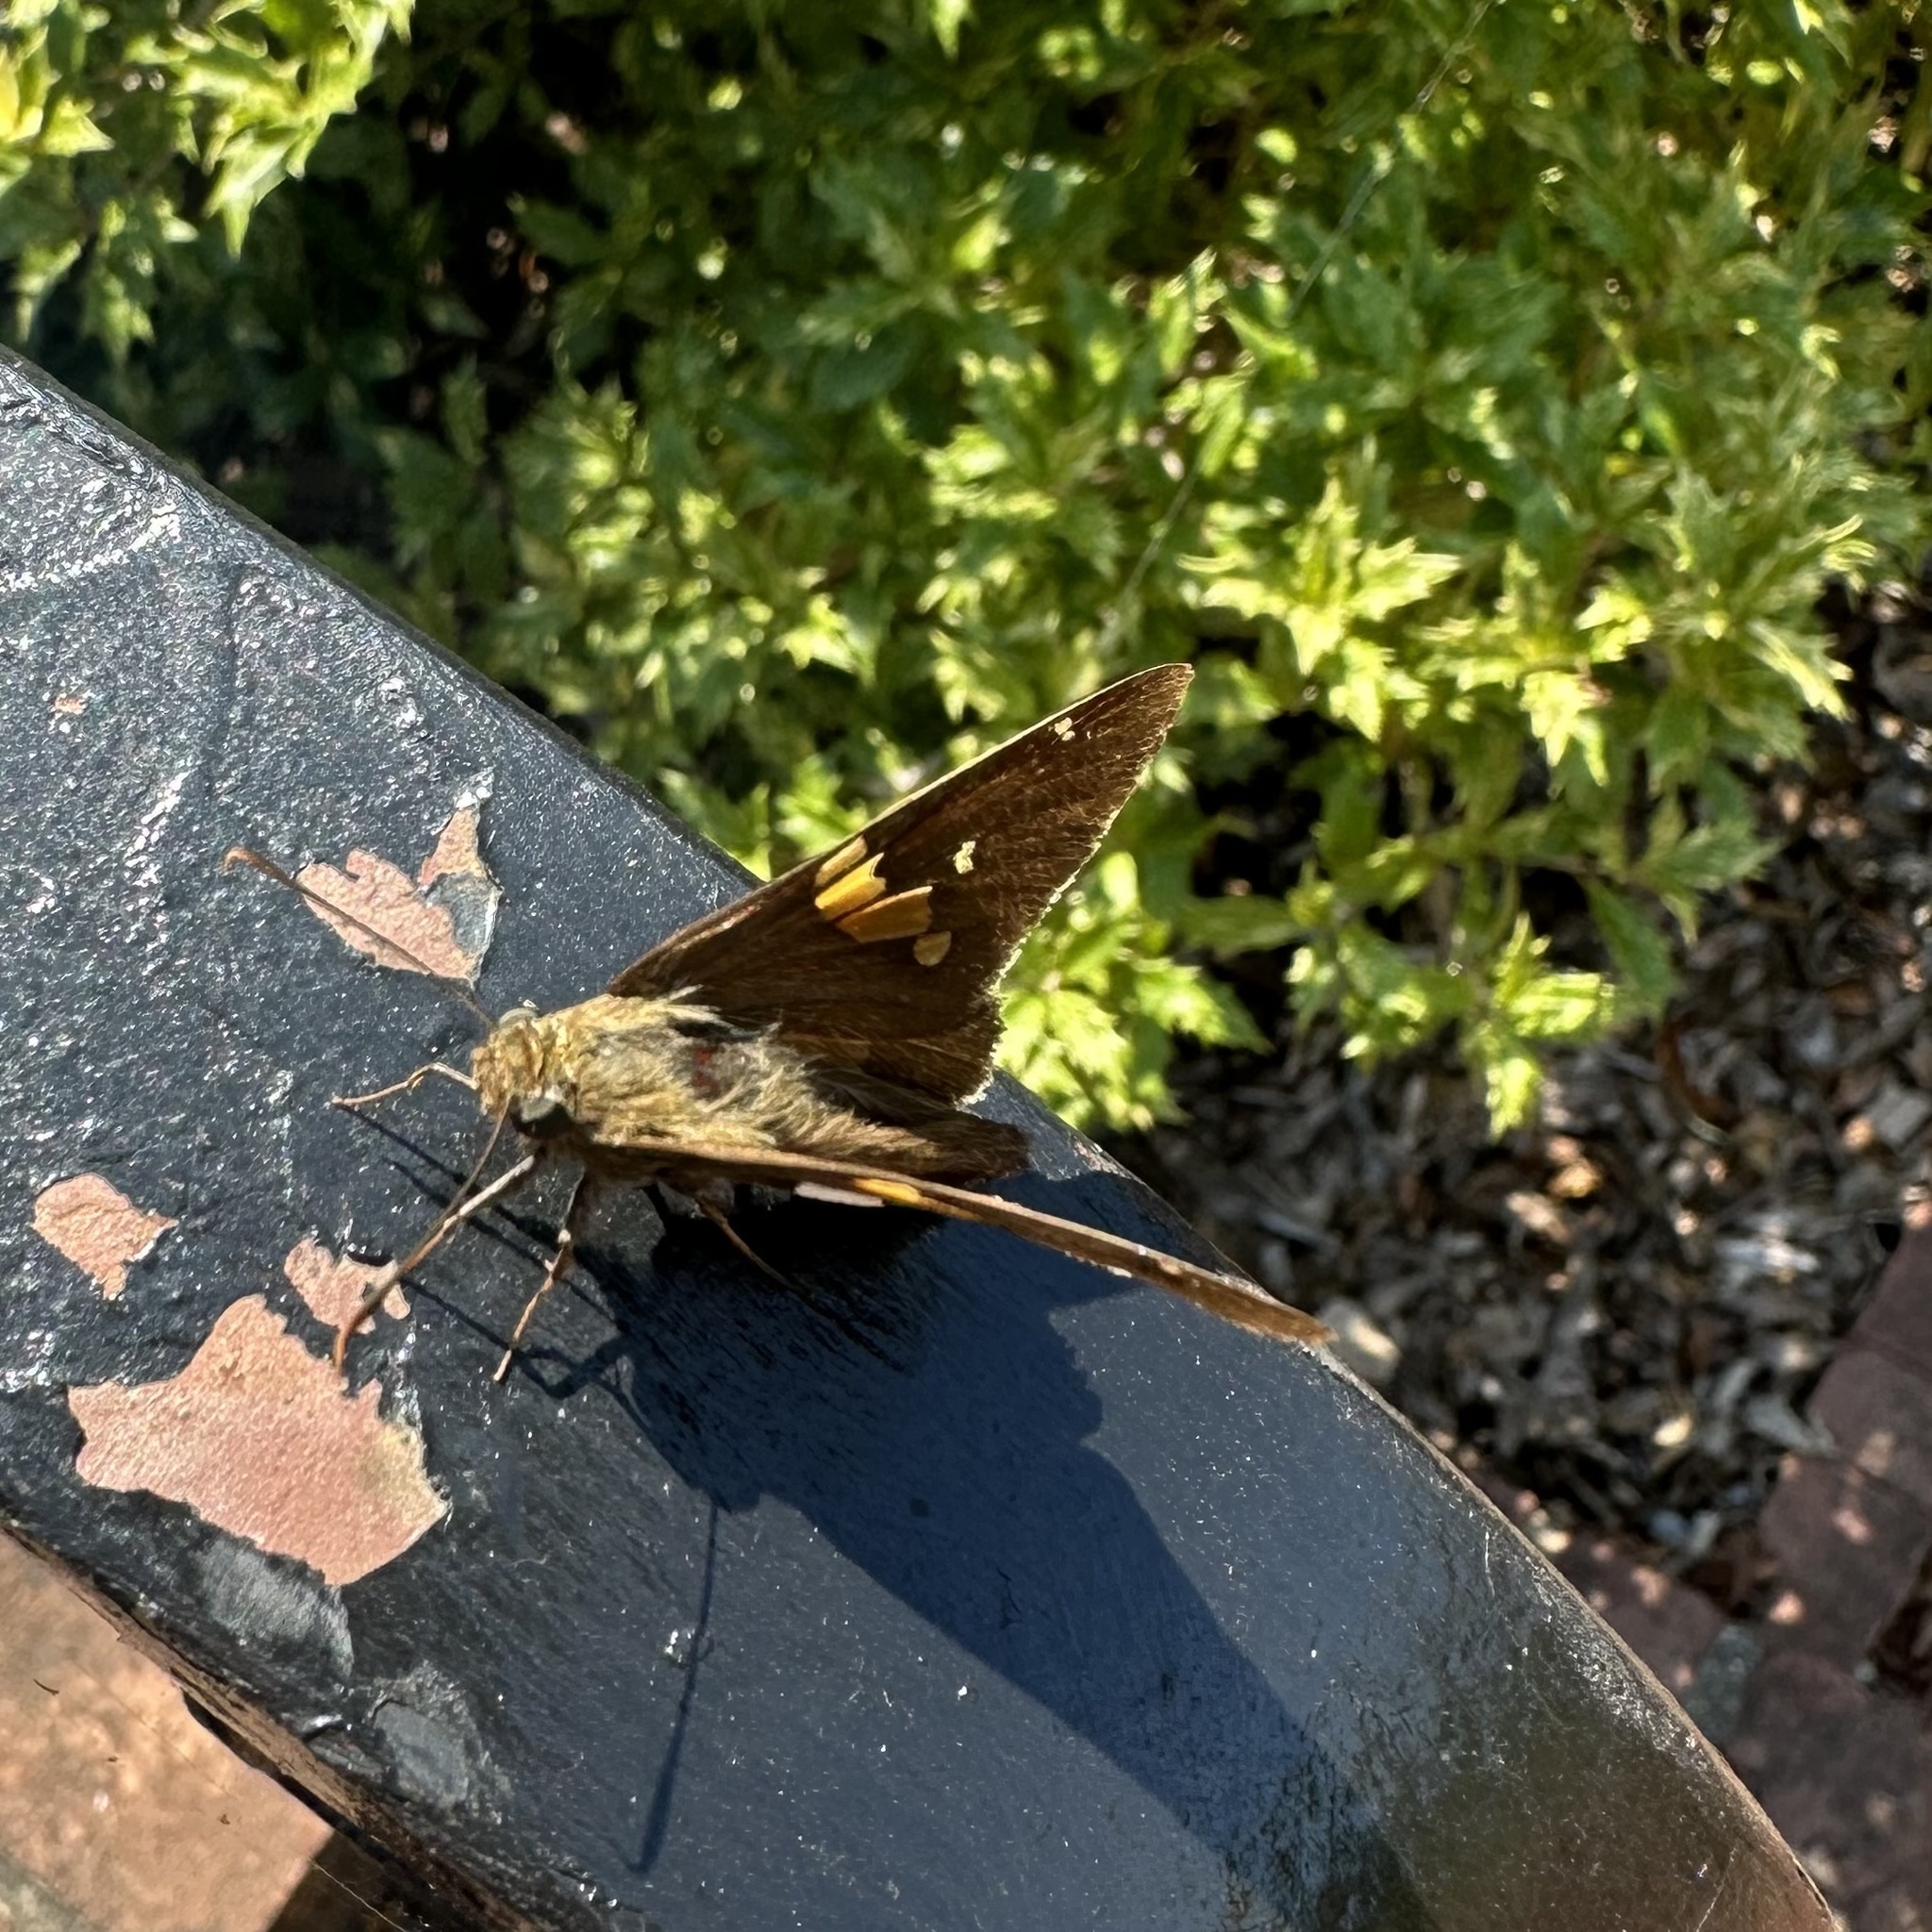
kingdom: Animalia
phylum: Arthropoda
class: Insecta
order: Lepidoptera
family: Hesperiidae
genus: Epargyreus
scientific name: Epargyreus clarus
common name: Silver-spotted skipper
